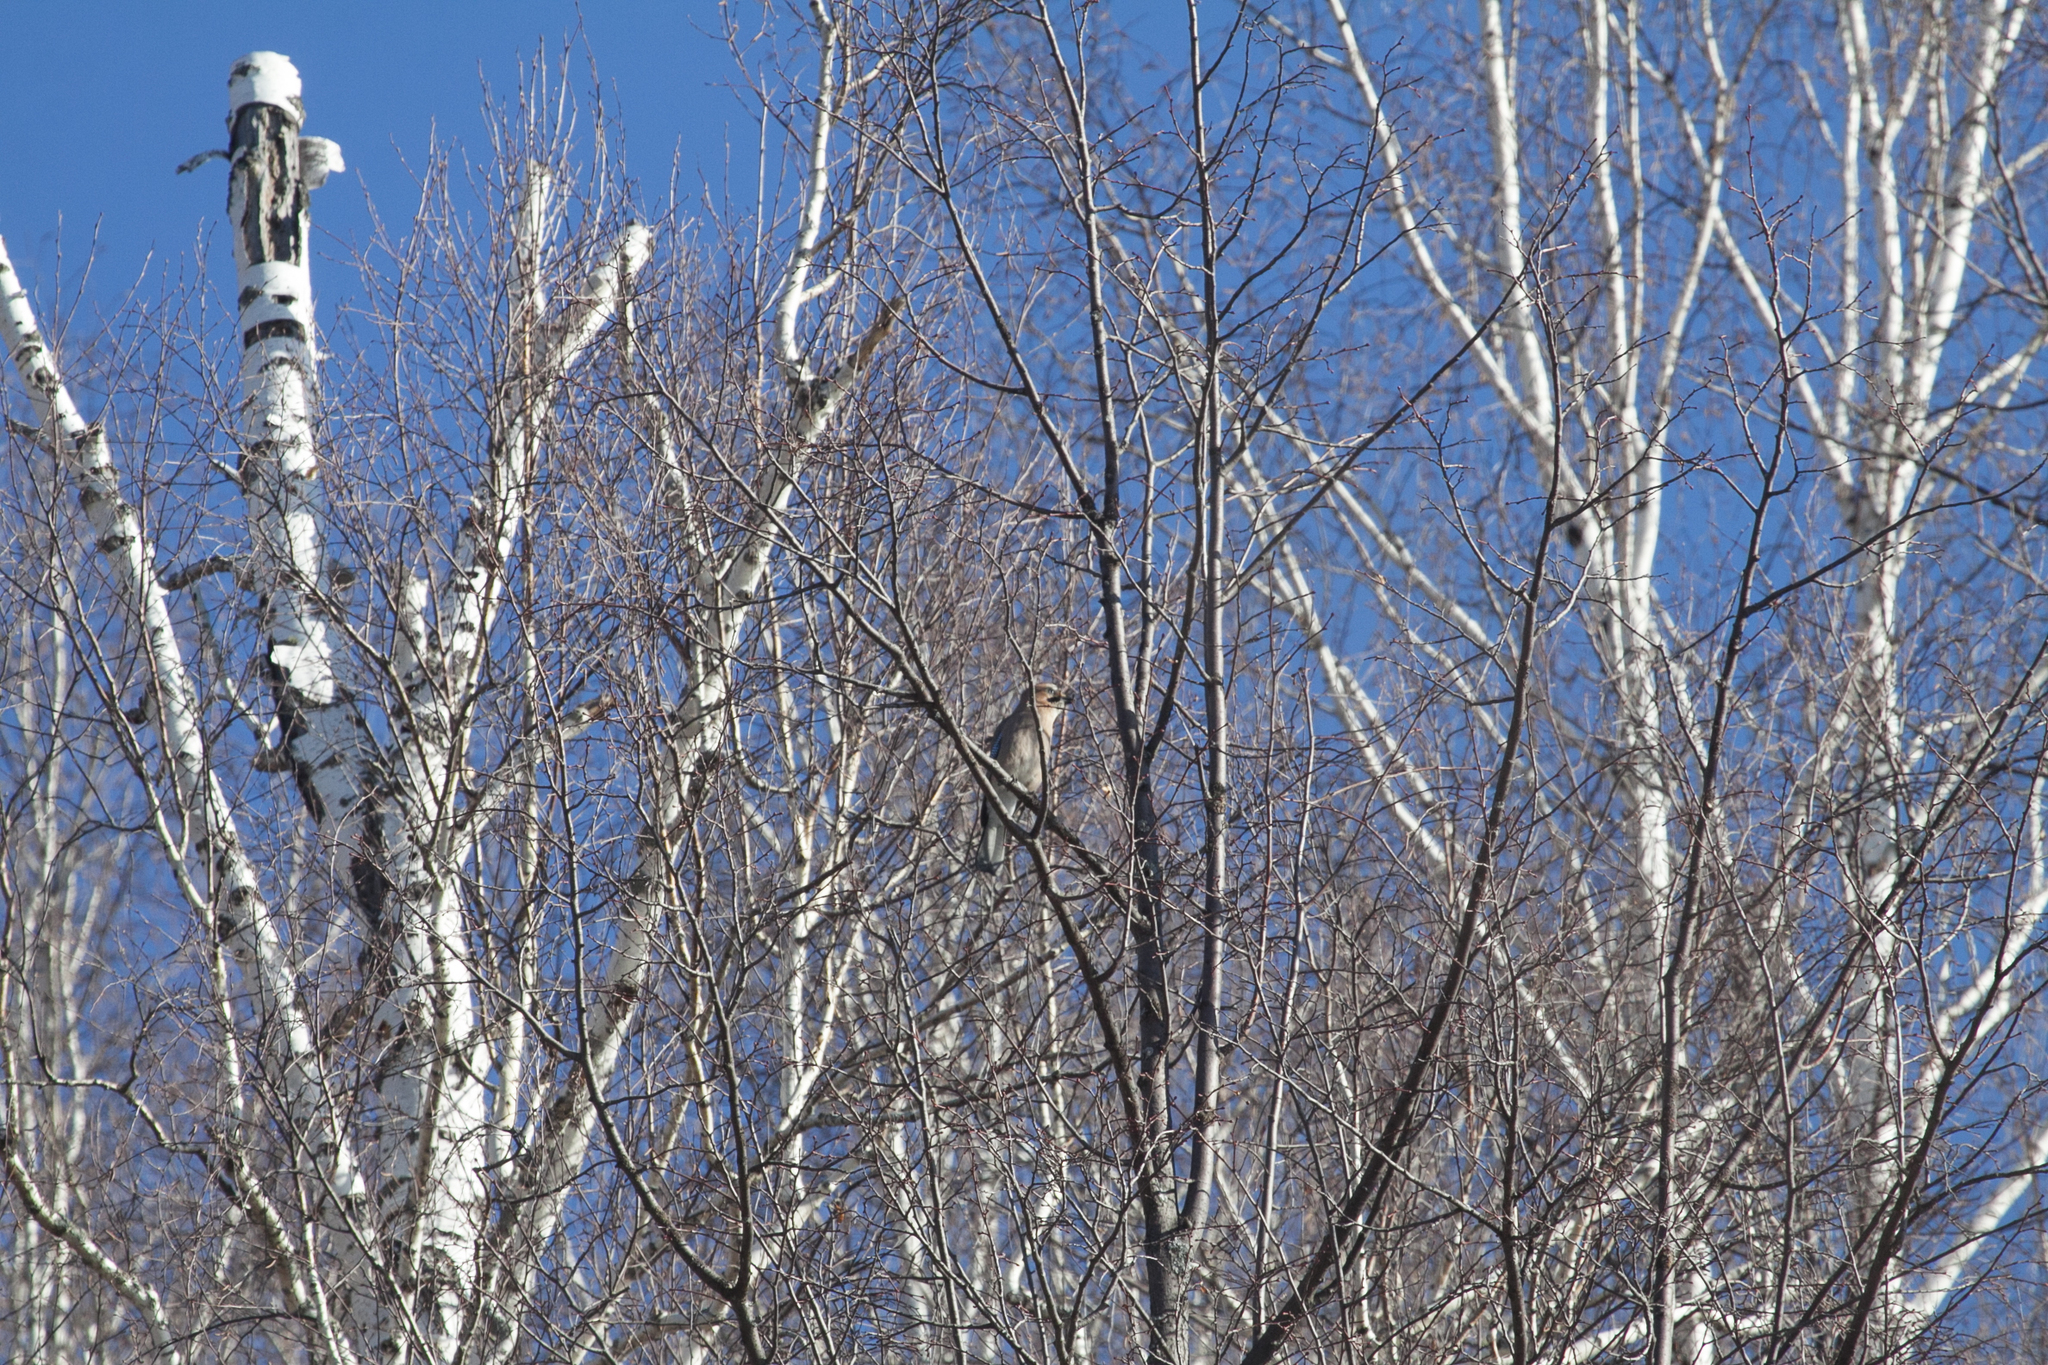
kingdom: Animalia
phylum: Chordata
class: Aves
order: Passeriformes
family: Corvidae
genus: Garrulus
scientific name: Garrulus glandarius
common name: Eurasian jay
